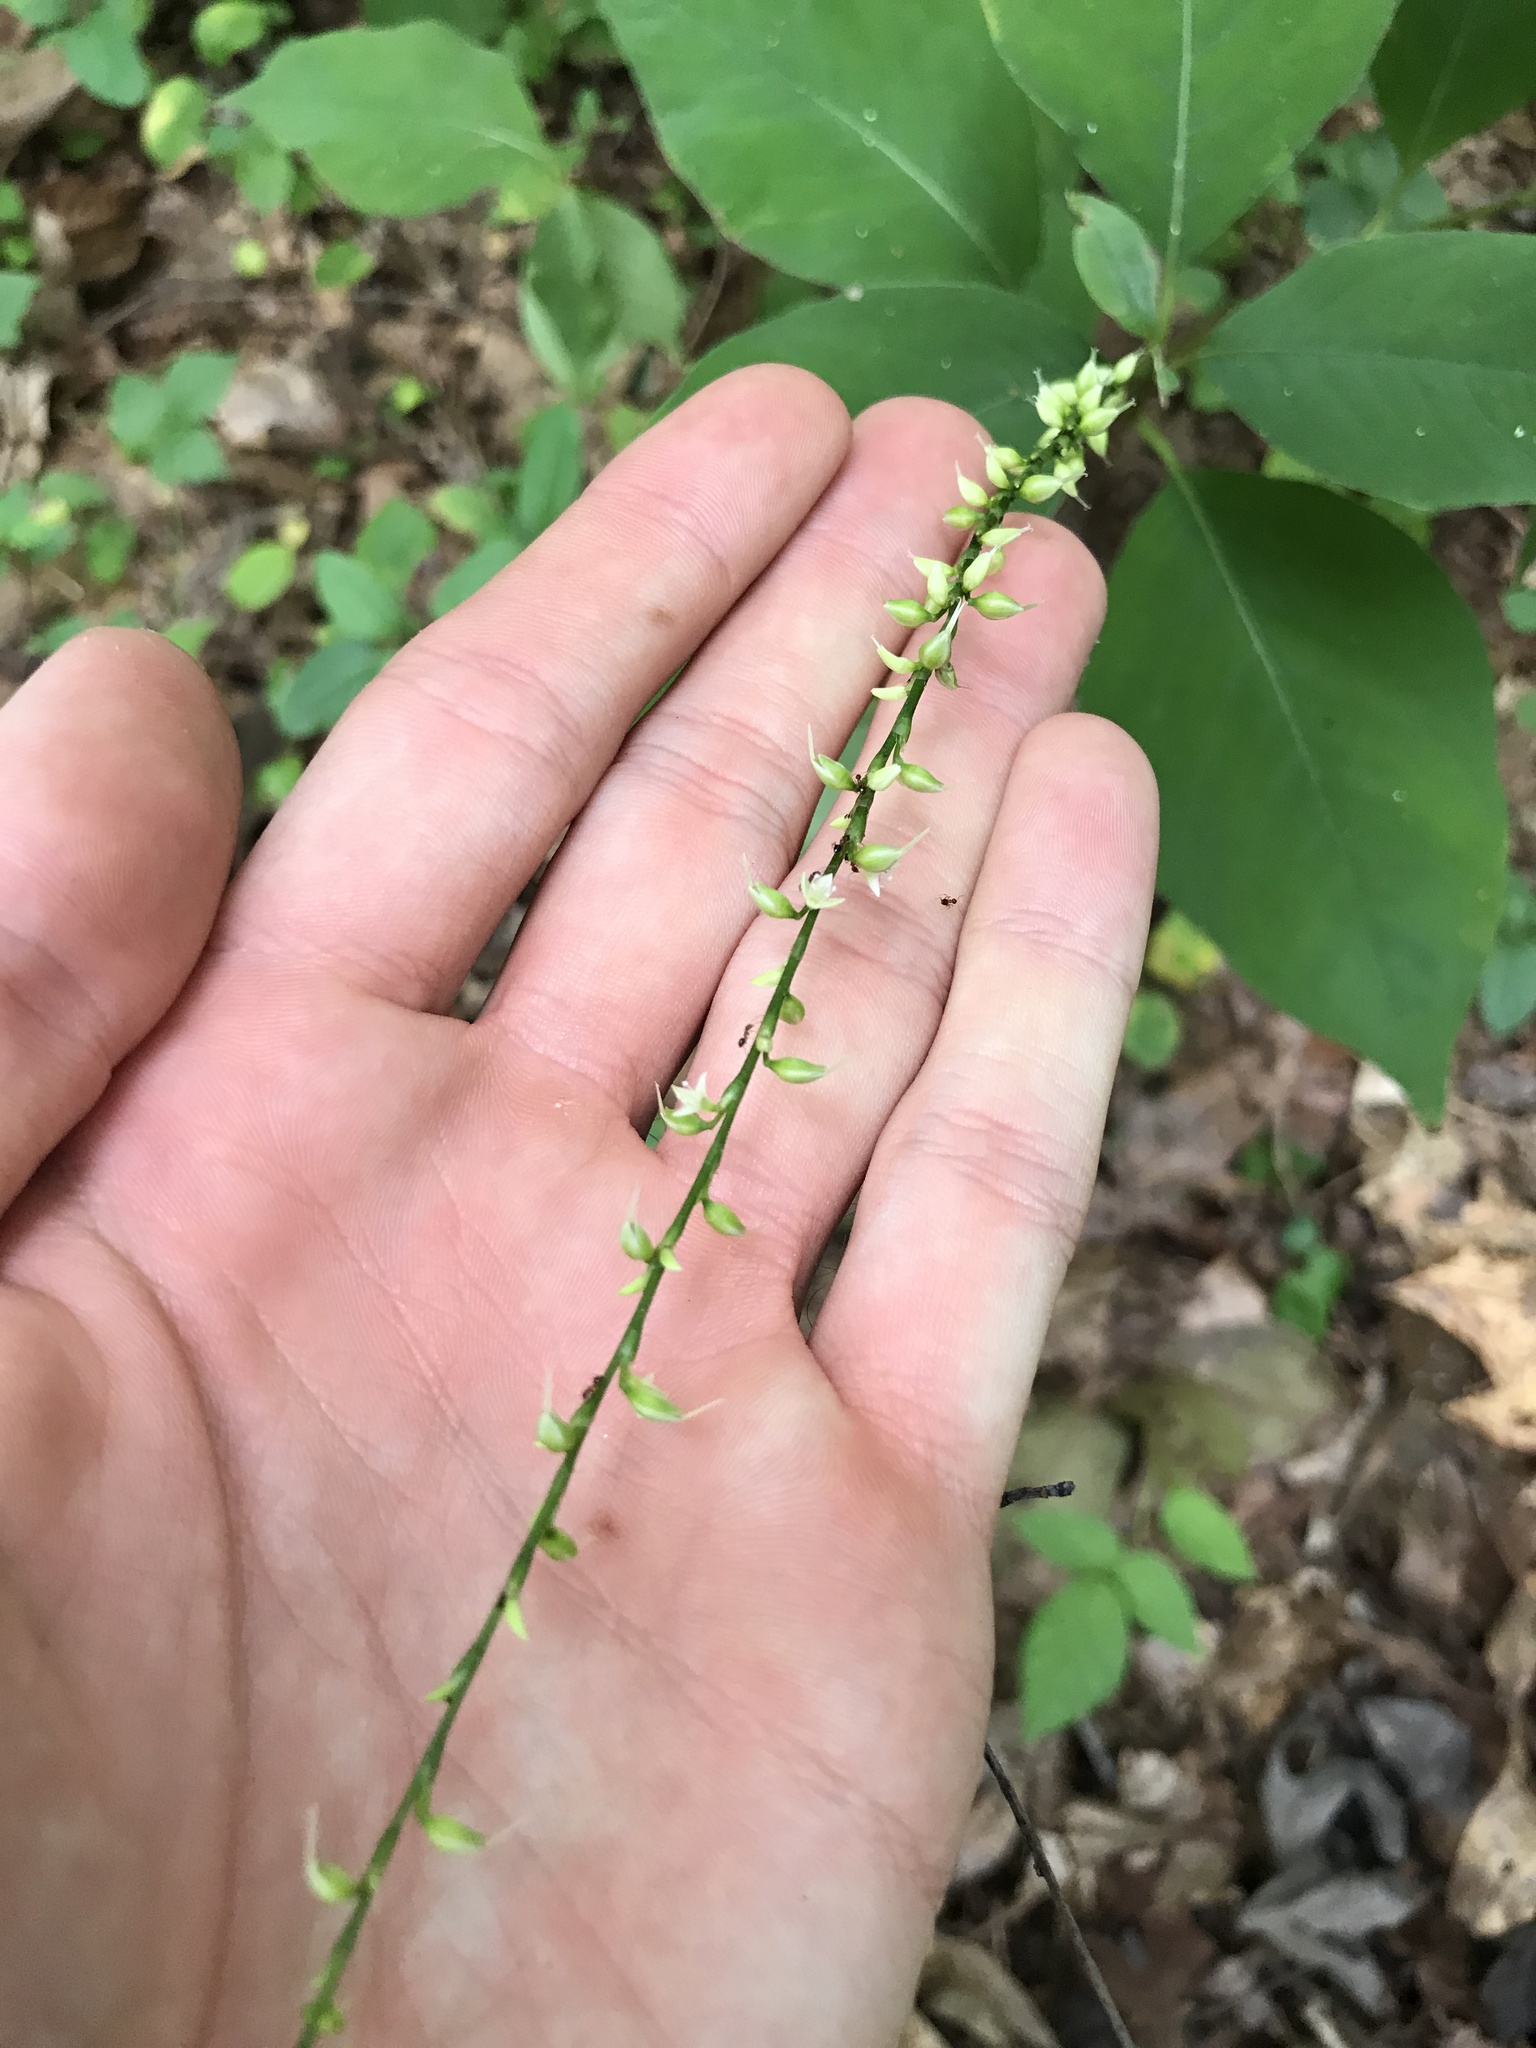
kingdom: Plantae
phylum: Tracheophyta
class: Magnoliopsida
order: Caryophyllales
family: Polygonaceae
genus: Persicaria
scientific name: Persicaria virginiana
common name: Jumpseed
